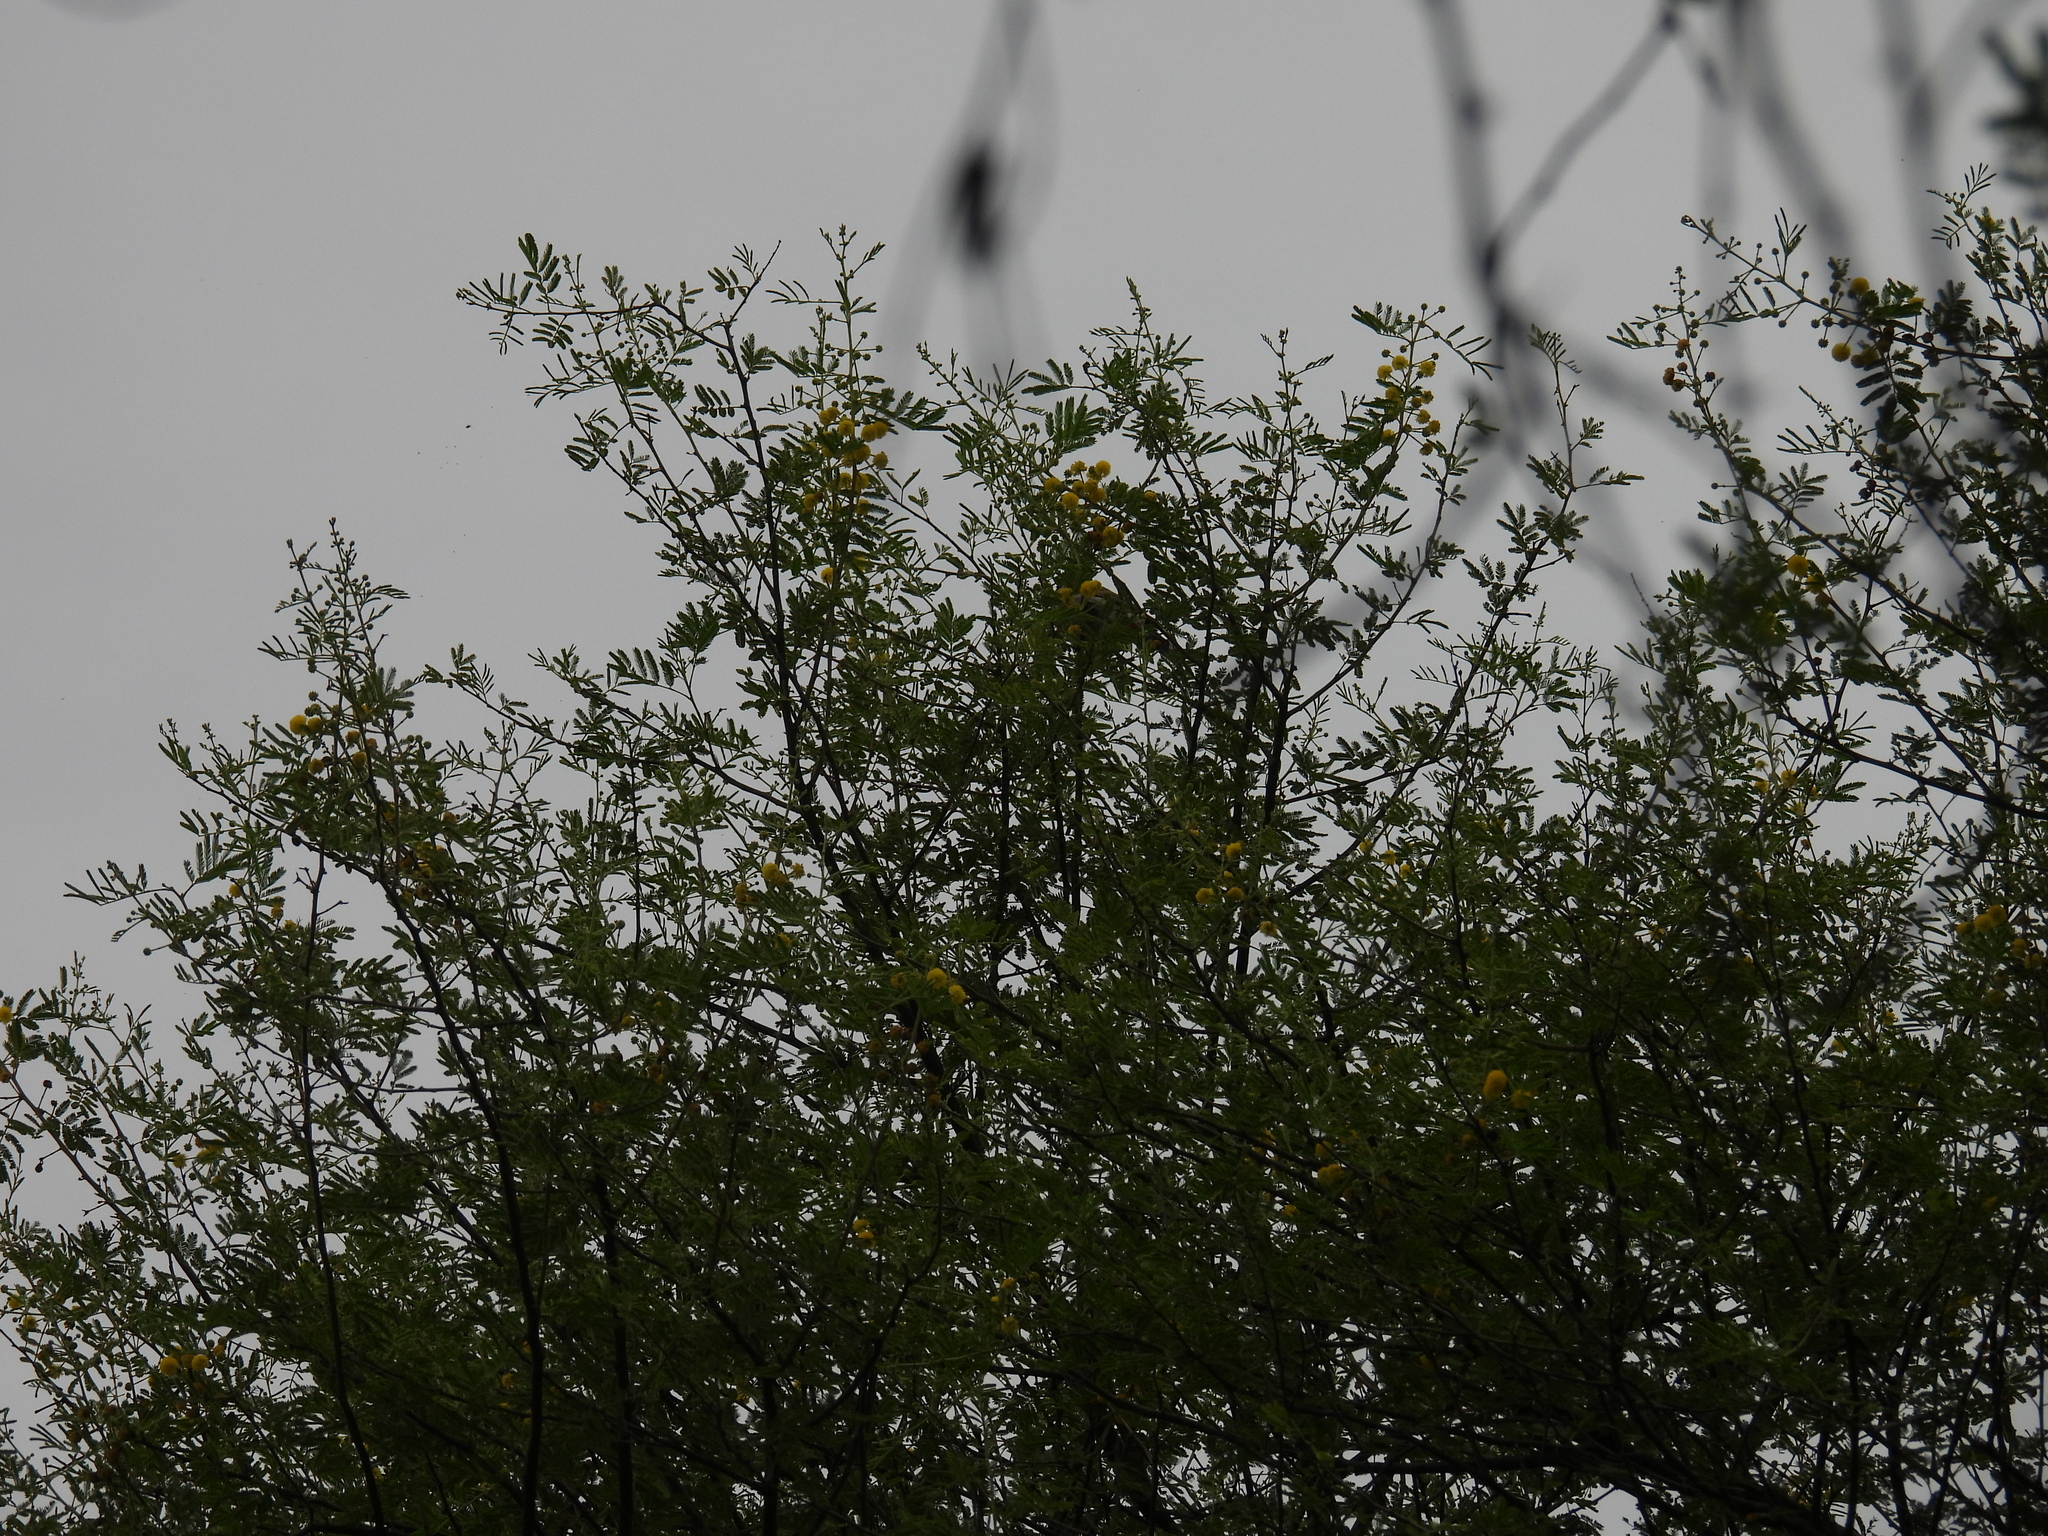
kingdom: Plantae
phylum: Tracheophyta
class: Magnoliopsida
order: Lamiales
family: Bignoniaceae
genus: Tecoma
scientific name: Tecoma stans
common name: Yellow trumpetbush
